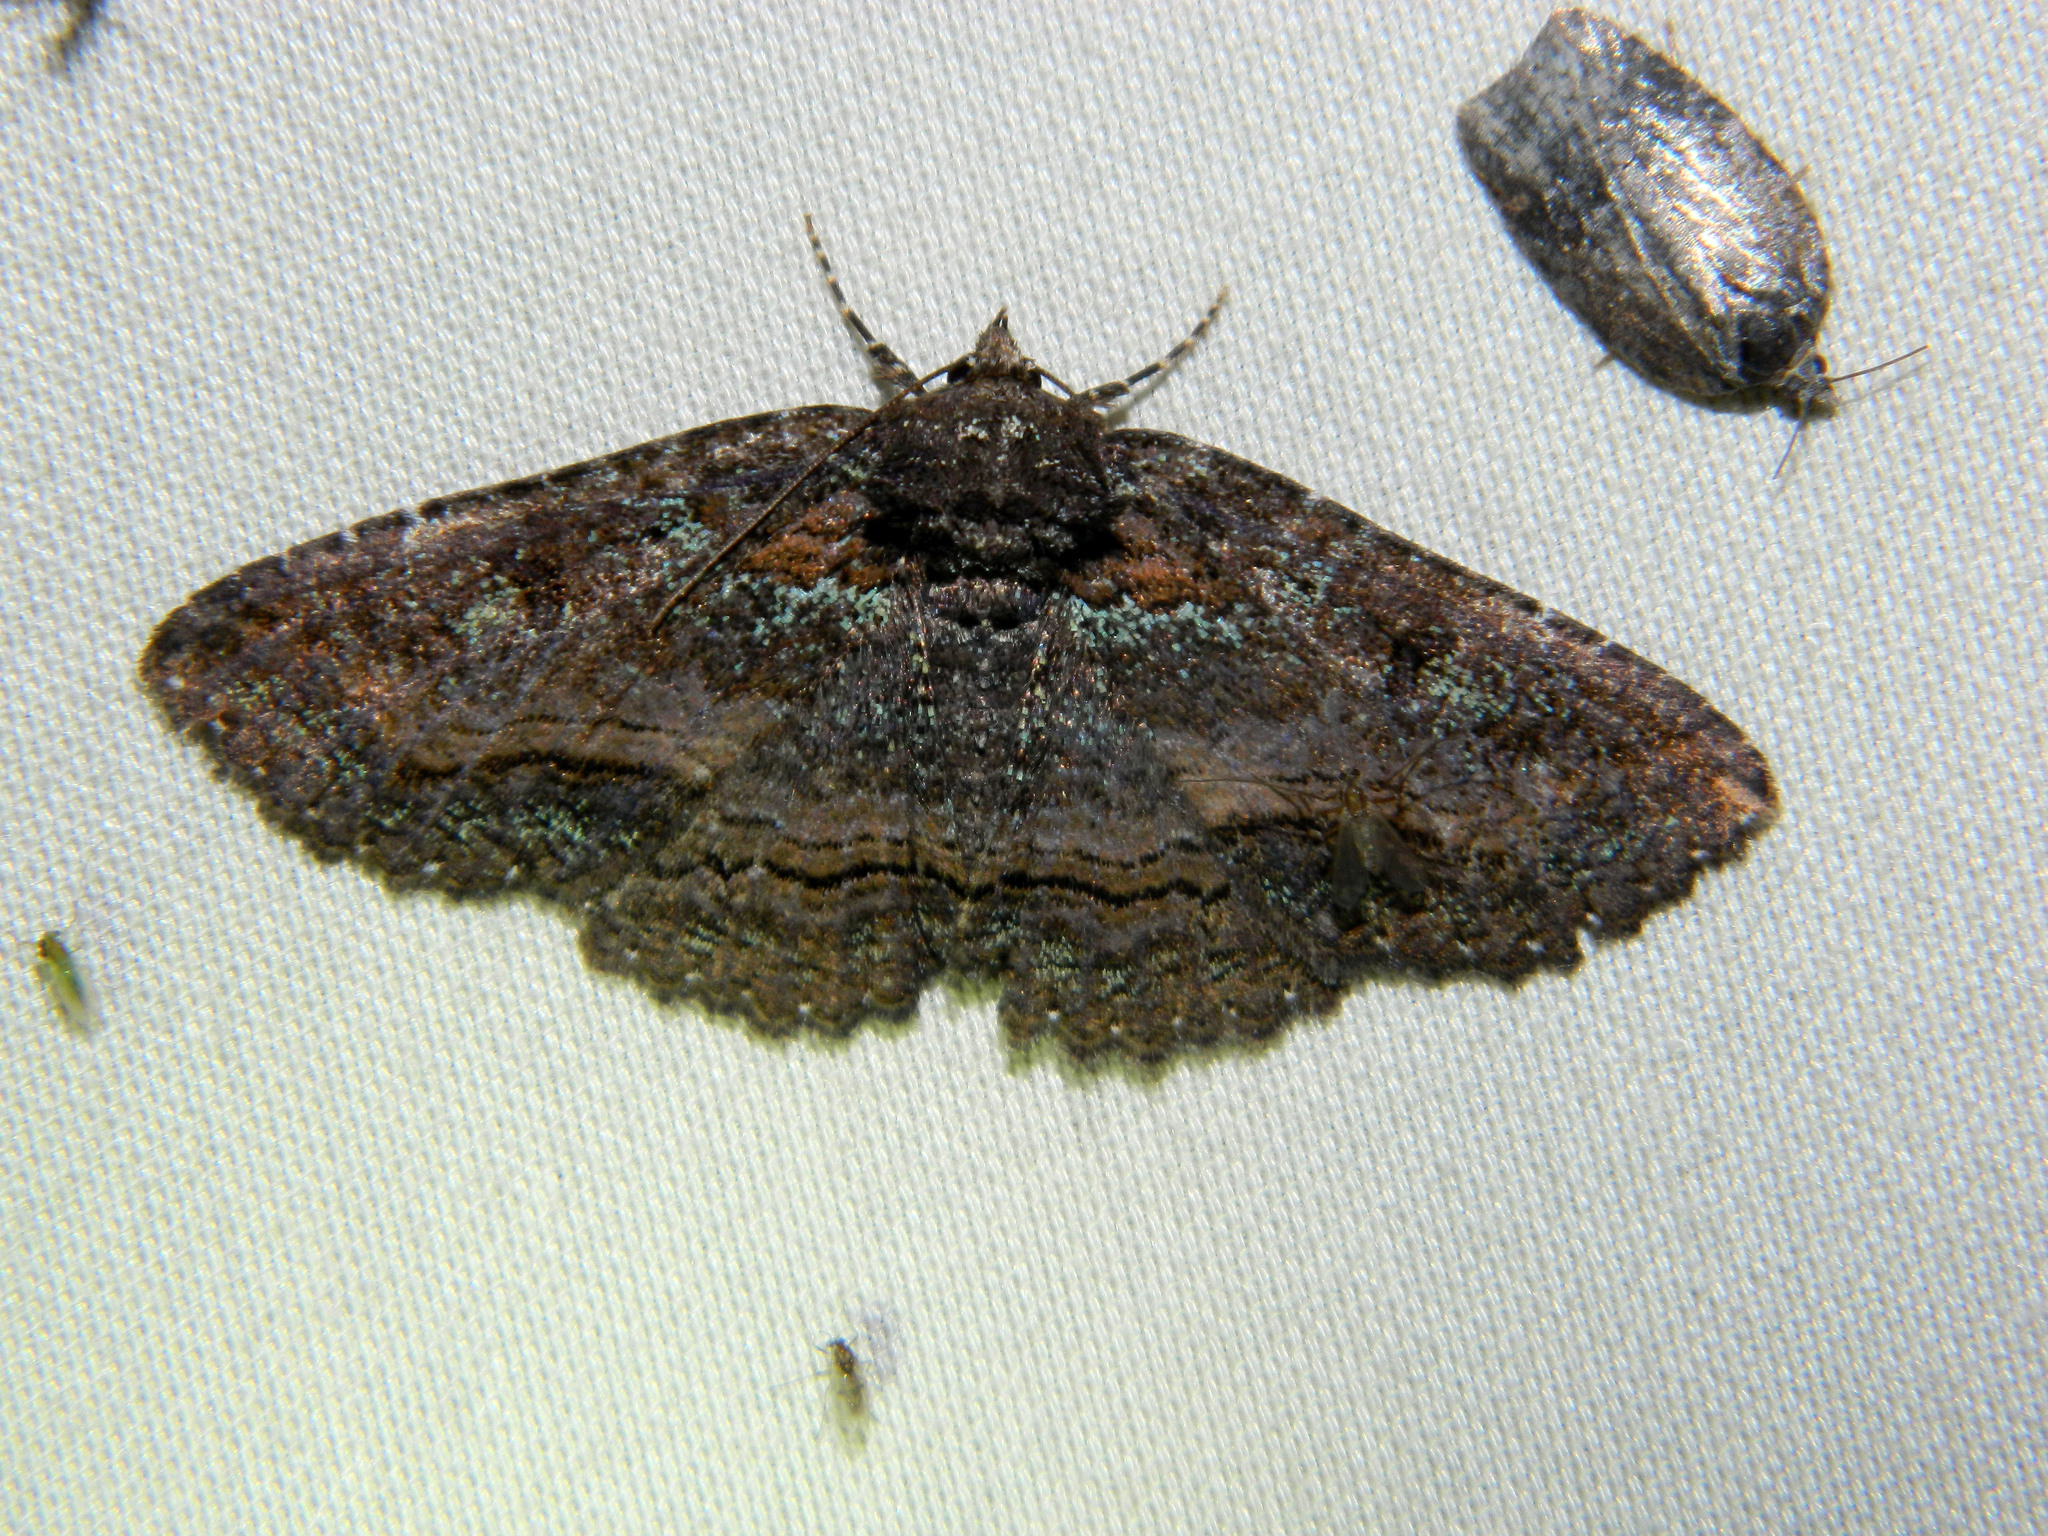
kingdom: Animalia
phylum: Arthropoda
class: Insecta
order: Lepidoptera
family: Erebidae
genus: Zale
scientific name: Zale aeruginosa
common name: Green-dusted zale moth
